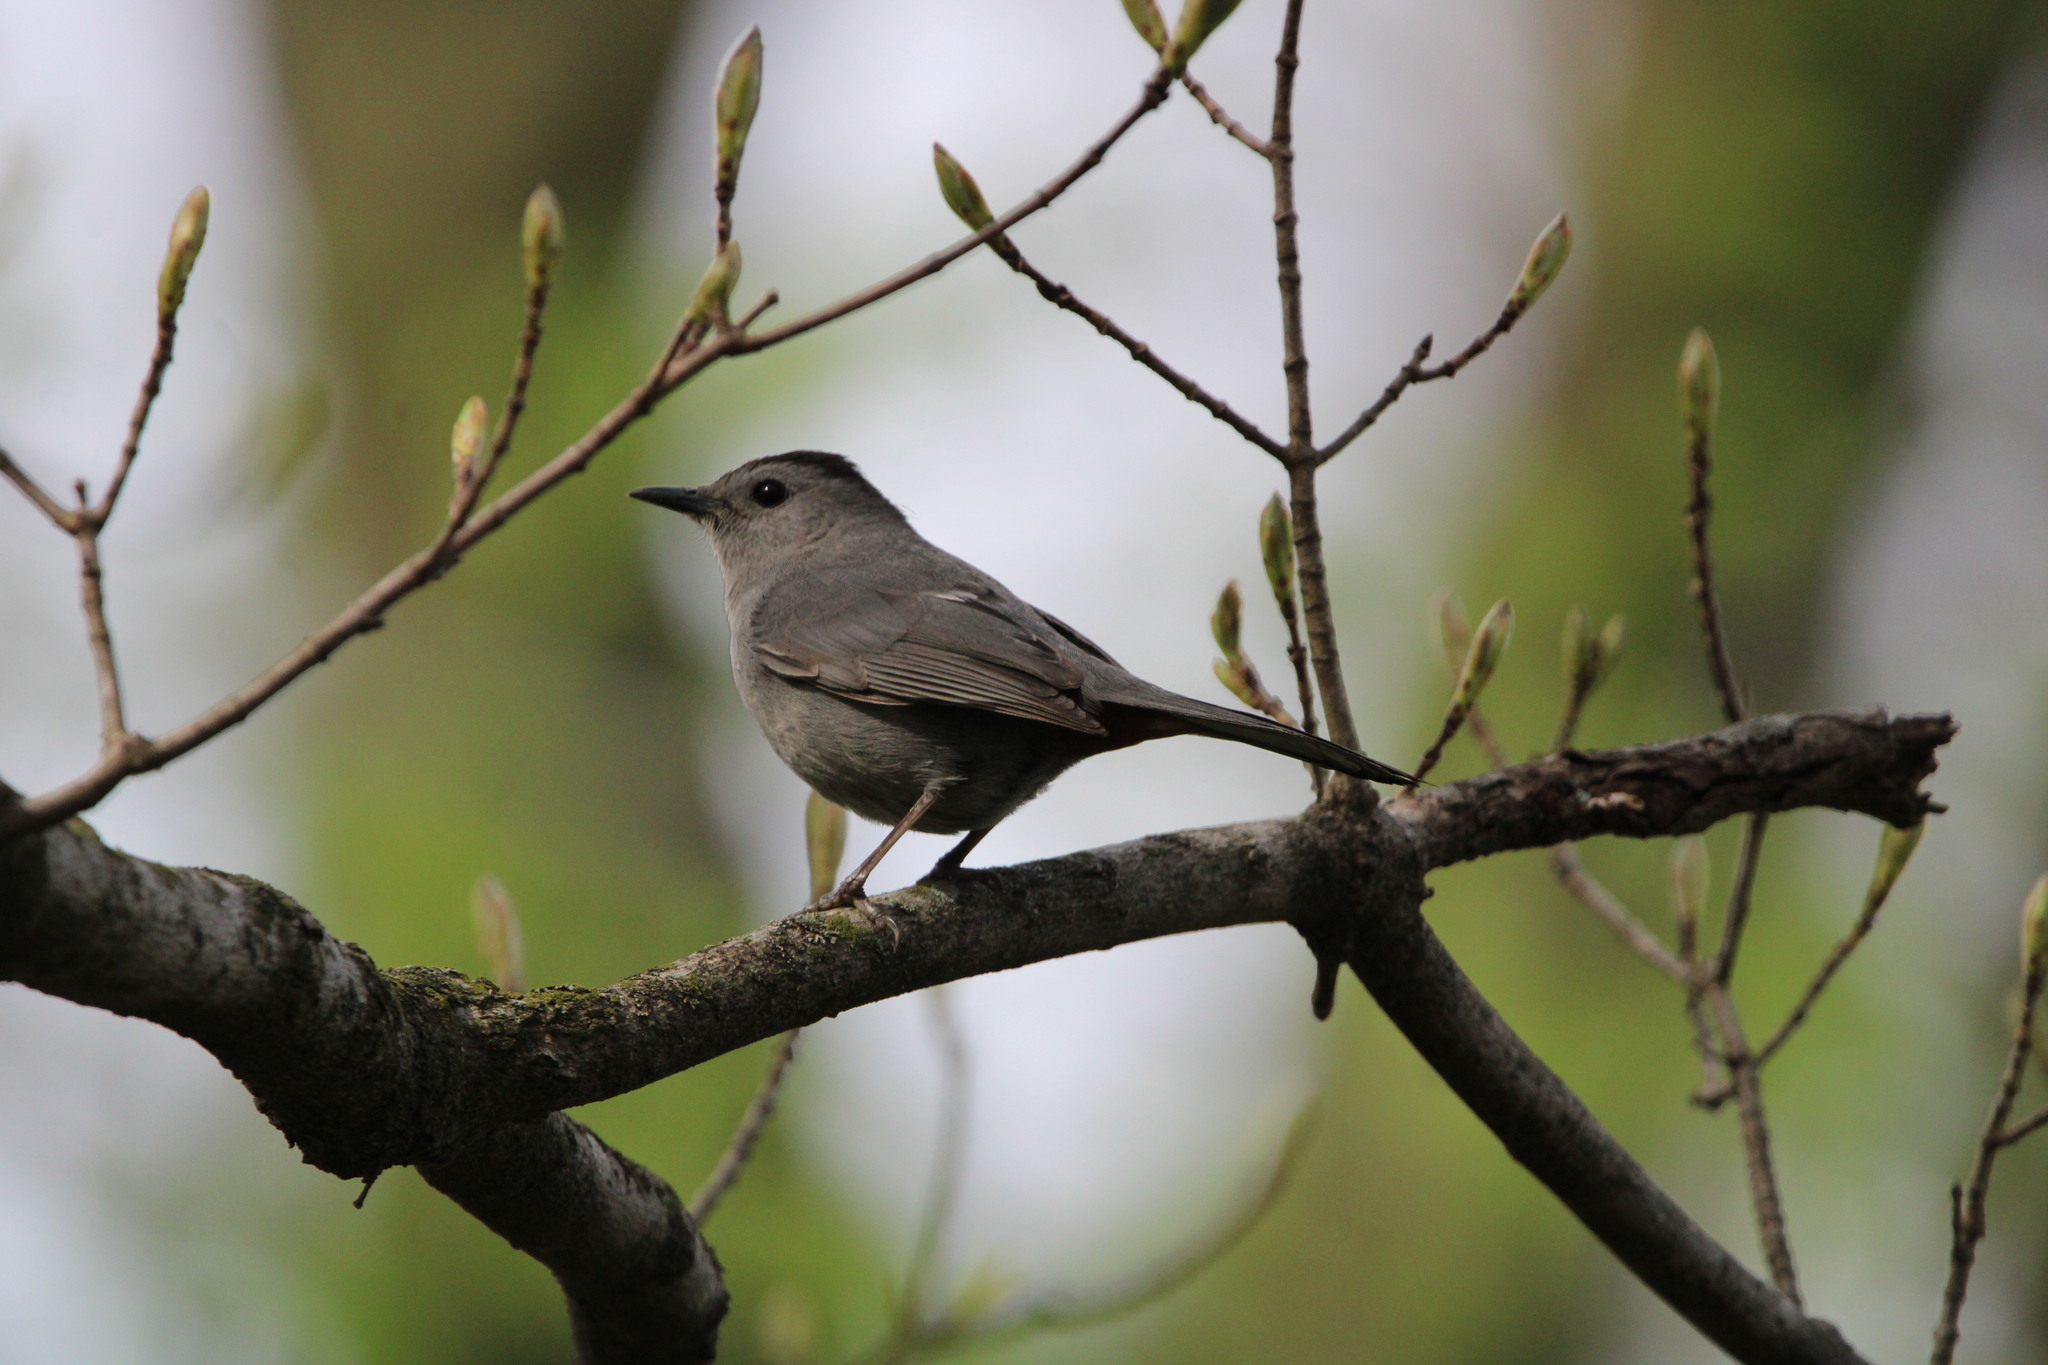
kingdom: Animalia
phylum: Chordata
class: Aves
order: Passeriformes
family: Mimidae
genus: Dumetella
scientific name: Dumetella carolinensis
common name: Gray catbird
